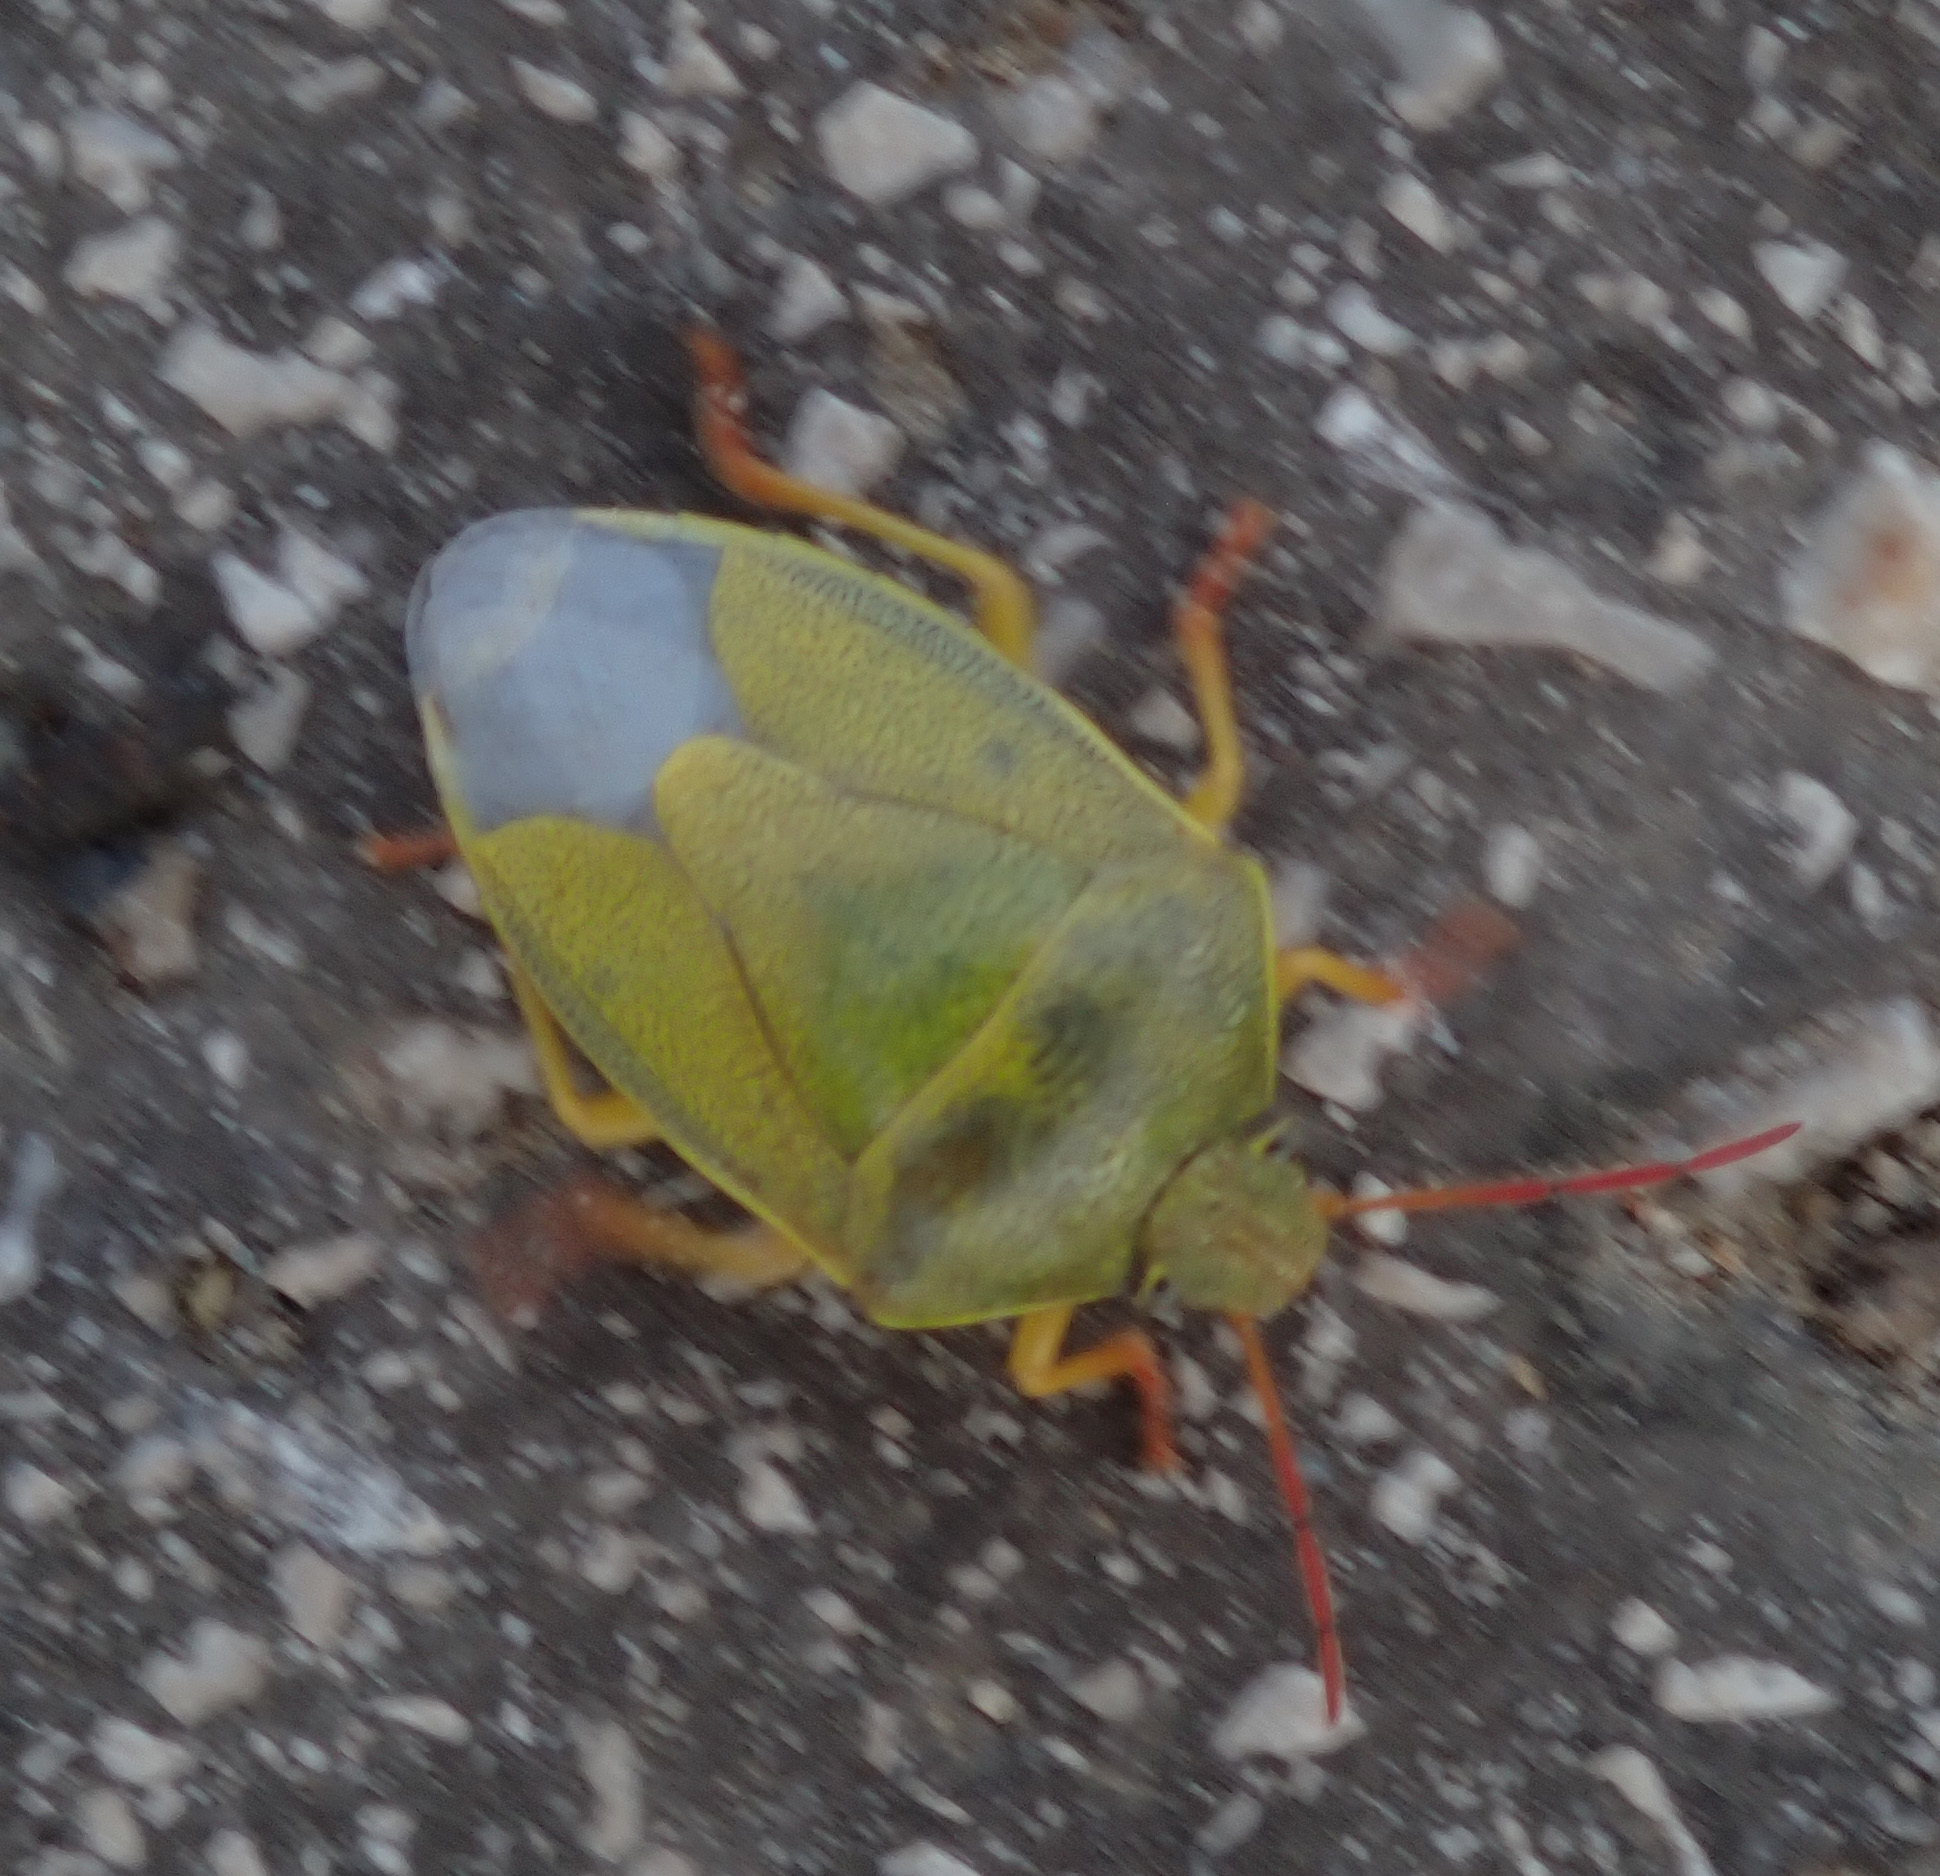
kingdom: Animalia
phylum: Arthropoda
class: Insecta
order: Hemiptera
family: Pentatomidae
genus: Piezodorus
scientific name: Piezodorus lituratus
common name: Stink bug
